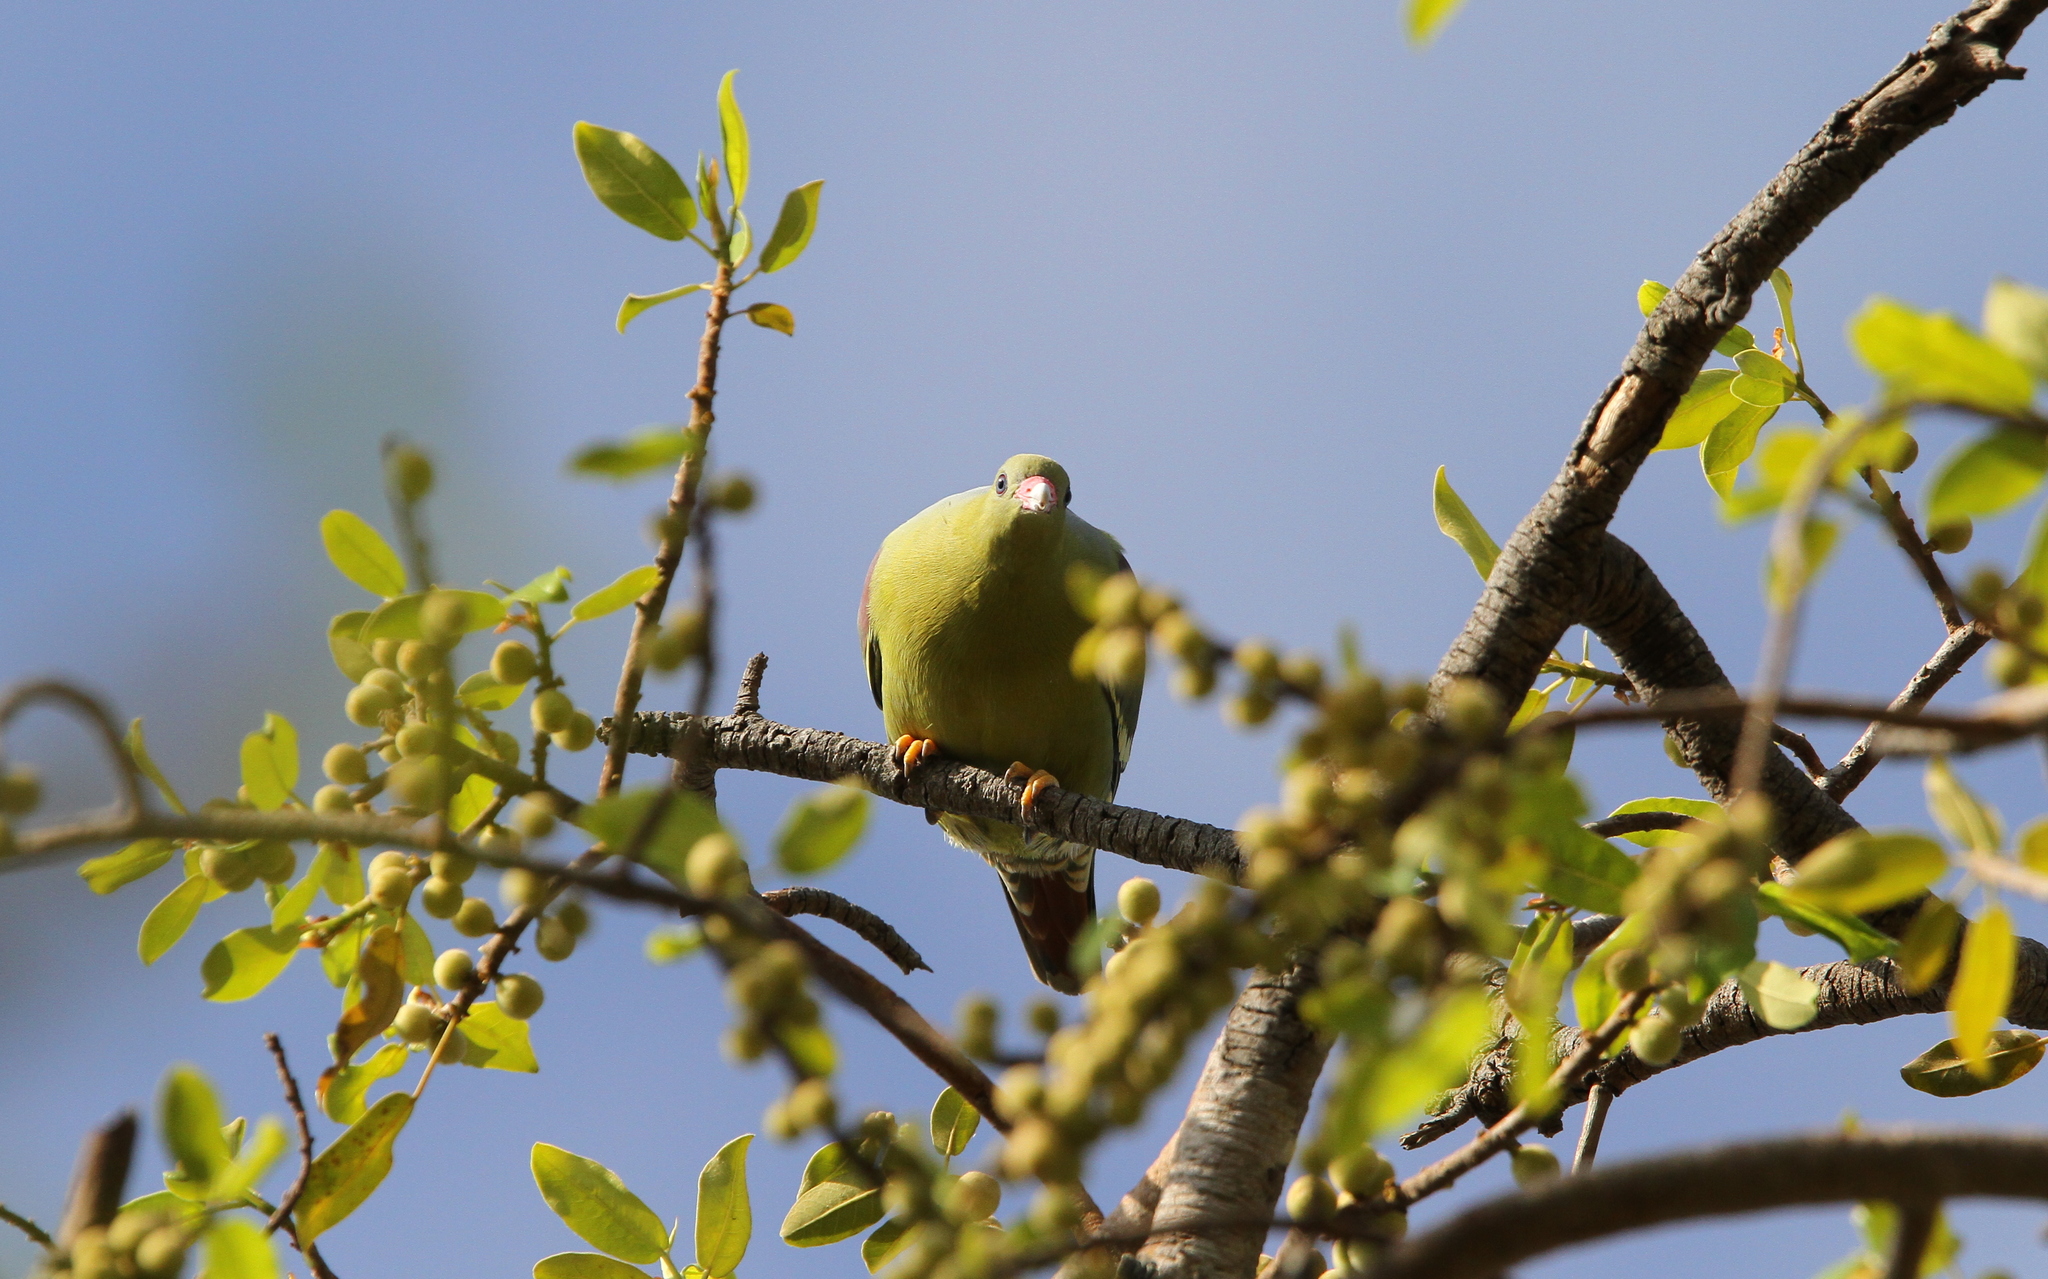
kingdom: Animalia
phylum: Chordata
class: Aves
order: Columbiformes
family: Columbidae
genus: Treron
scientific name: Treron calvus
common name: African green pigeon
